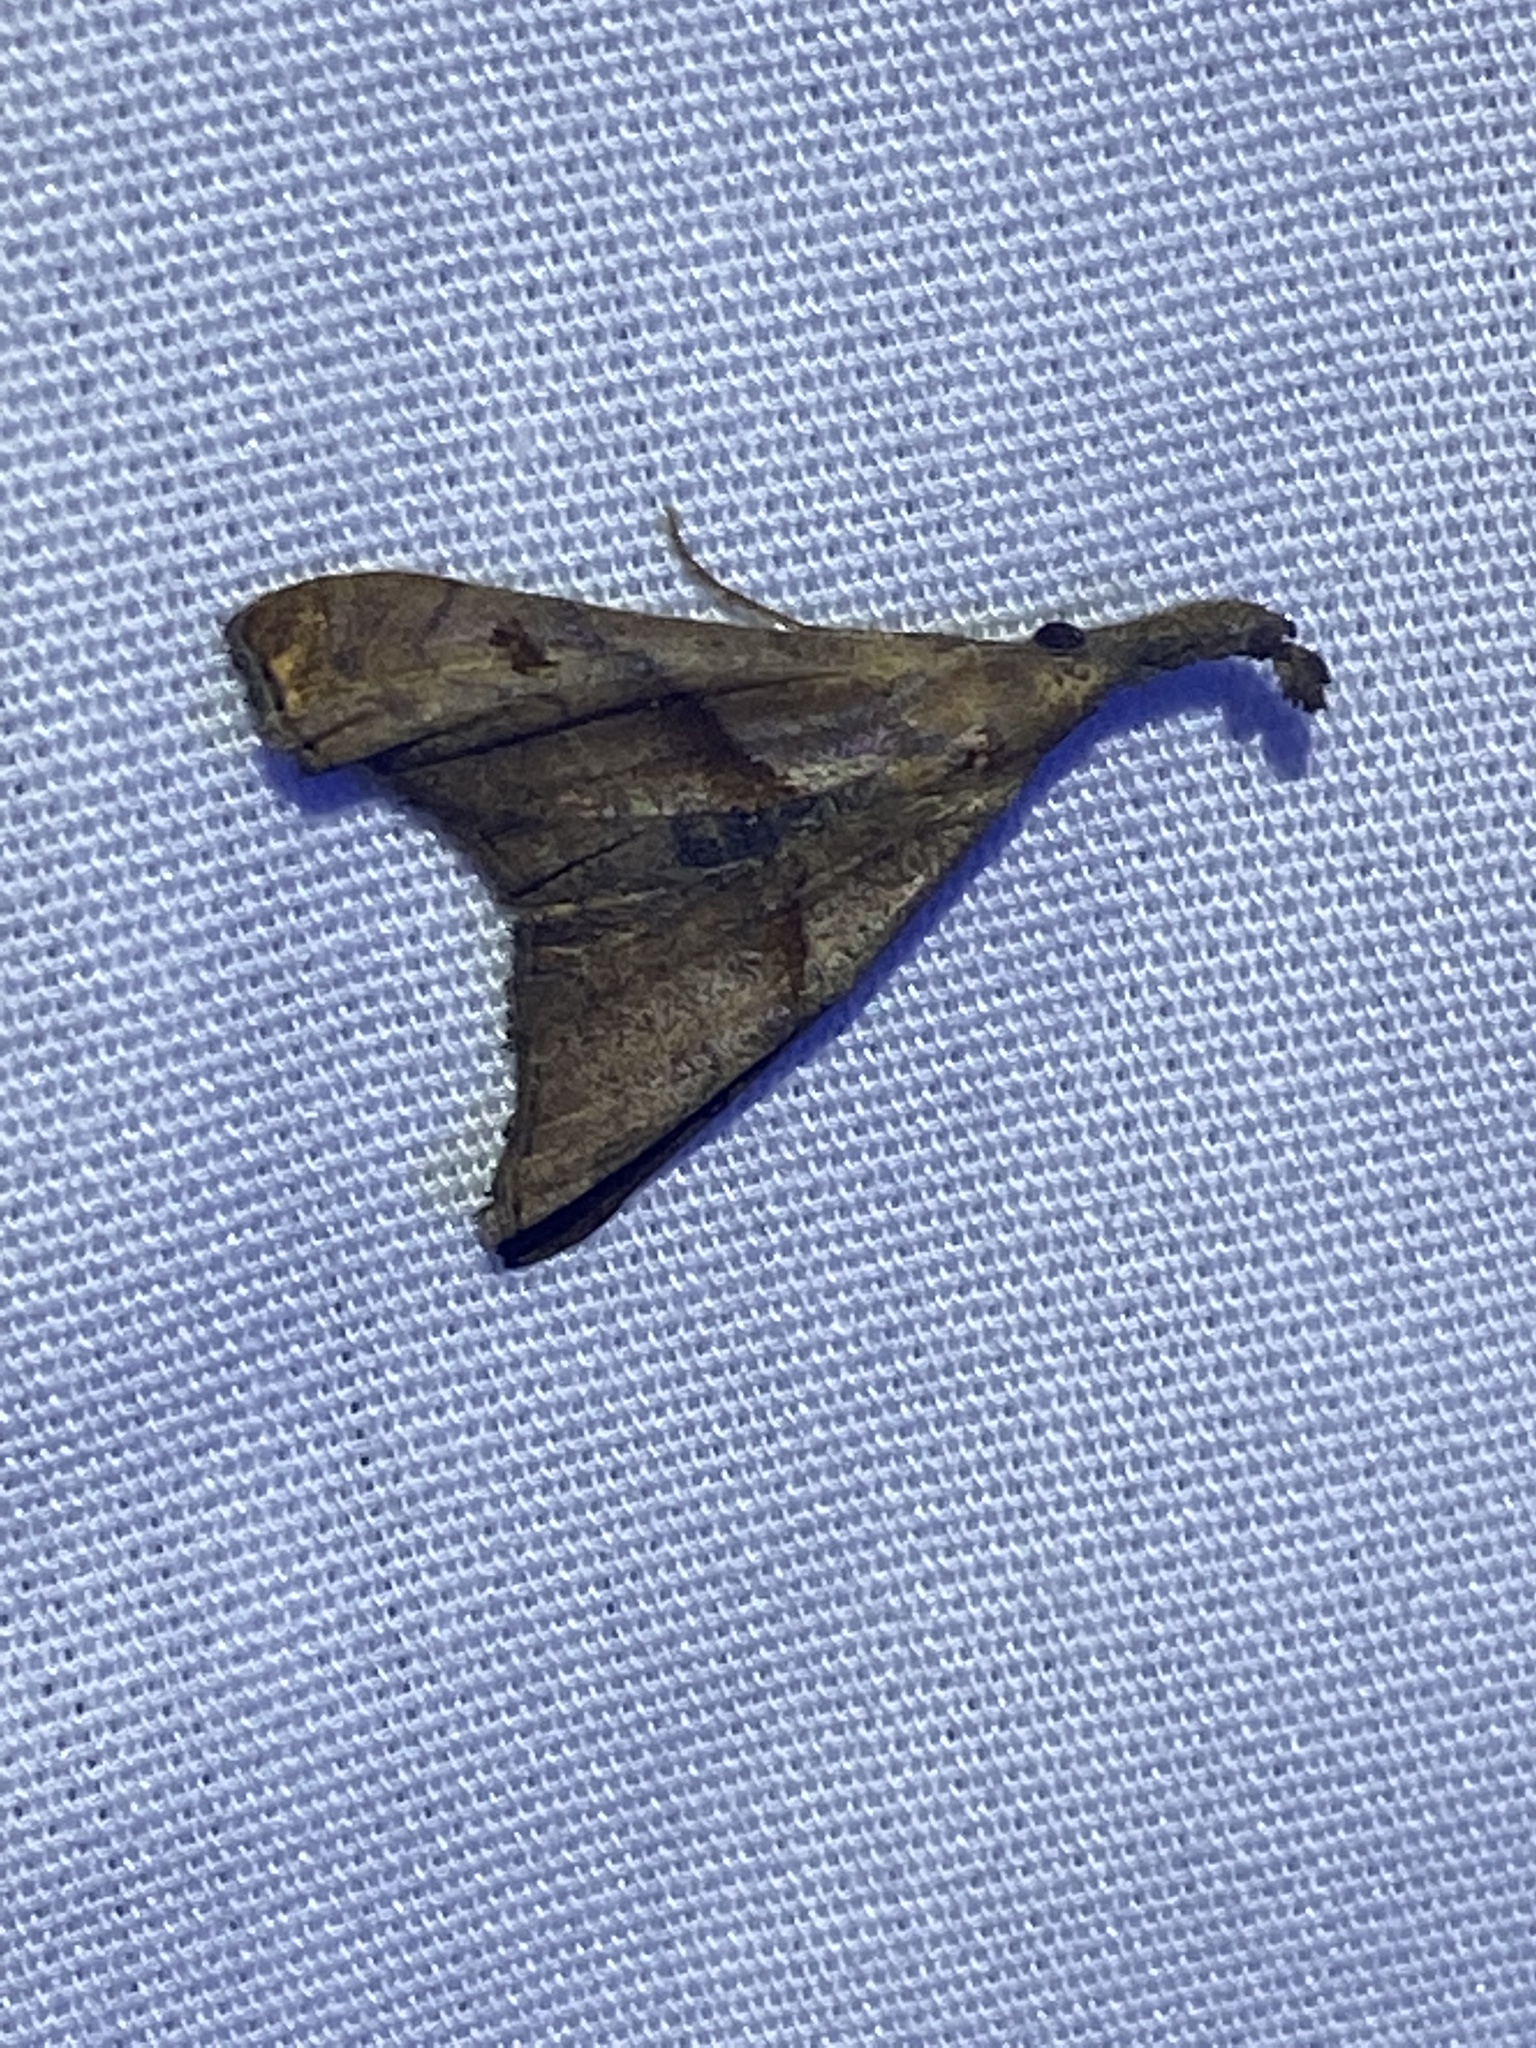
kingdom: Animalia
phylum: Arthropoda
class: Insecta
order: Lepidoptera
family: Erebidae
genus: Palthis
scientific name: Palthis angulalis
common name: Dark-spotted palthis moth
